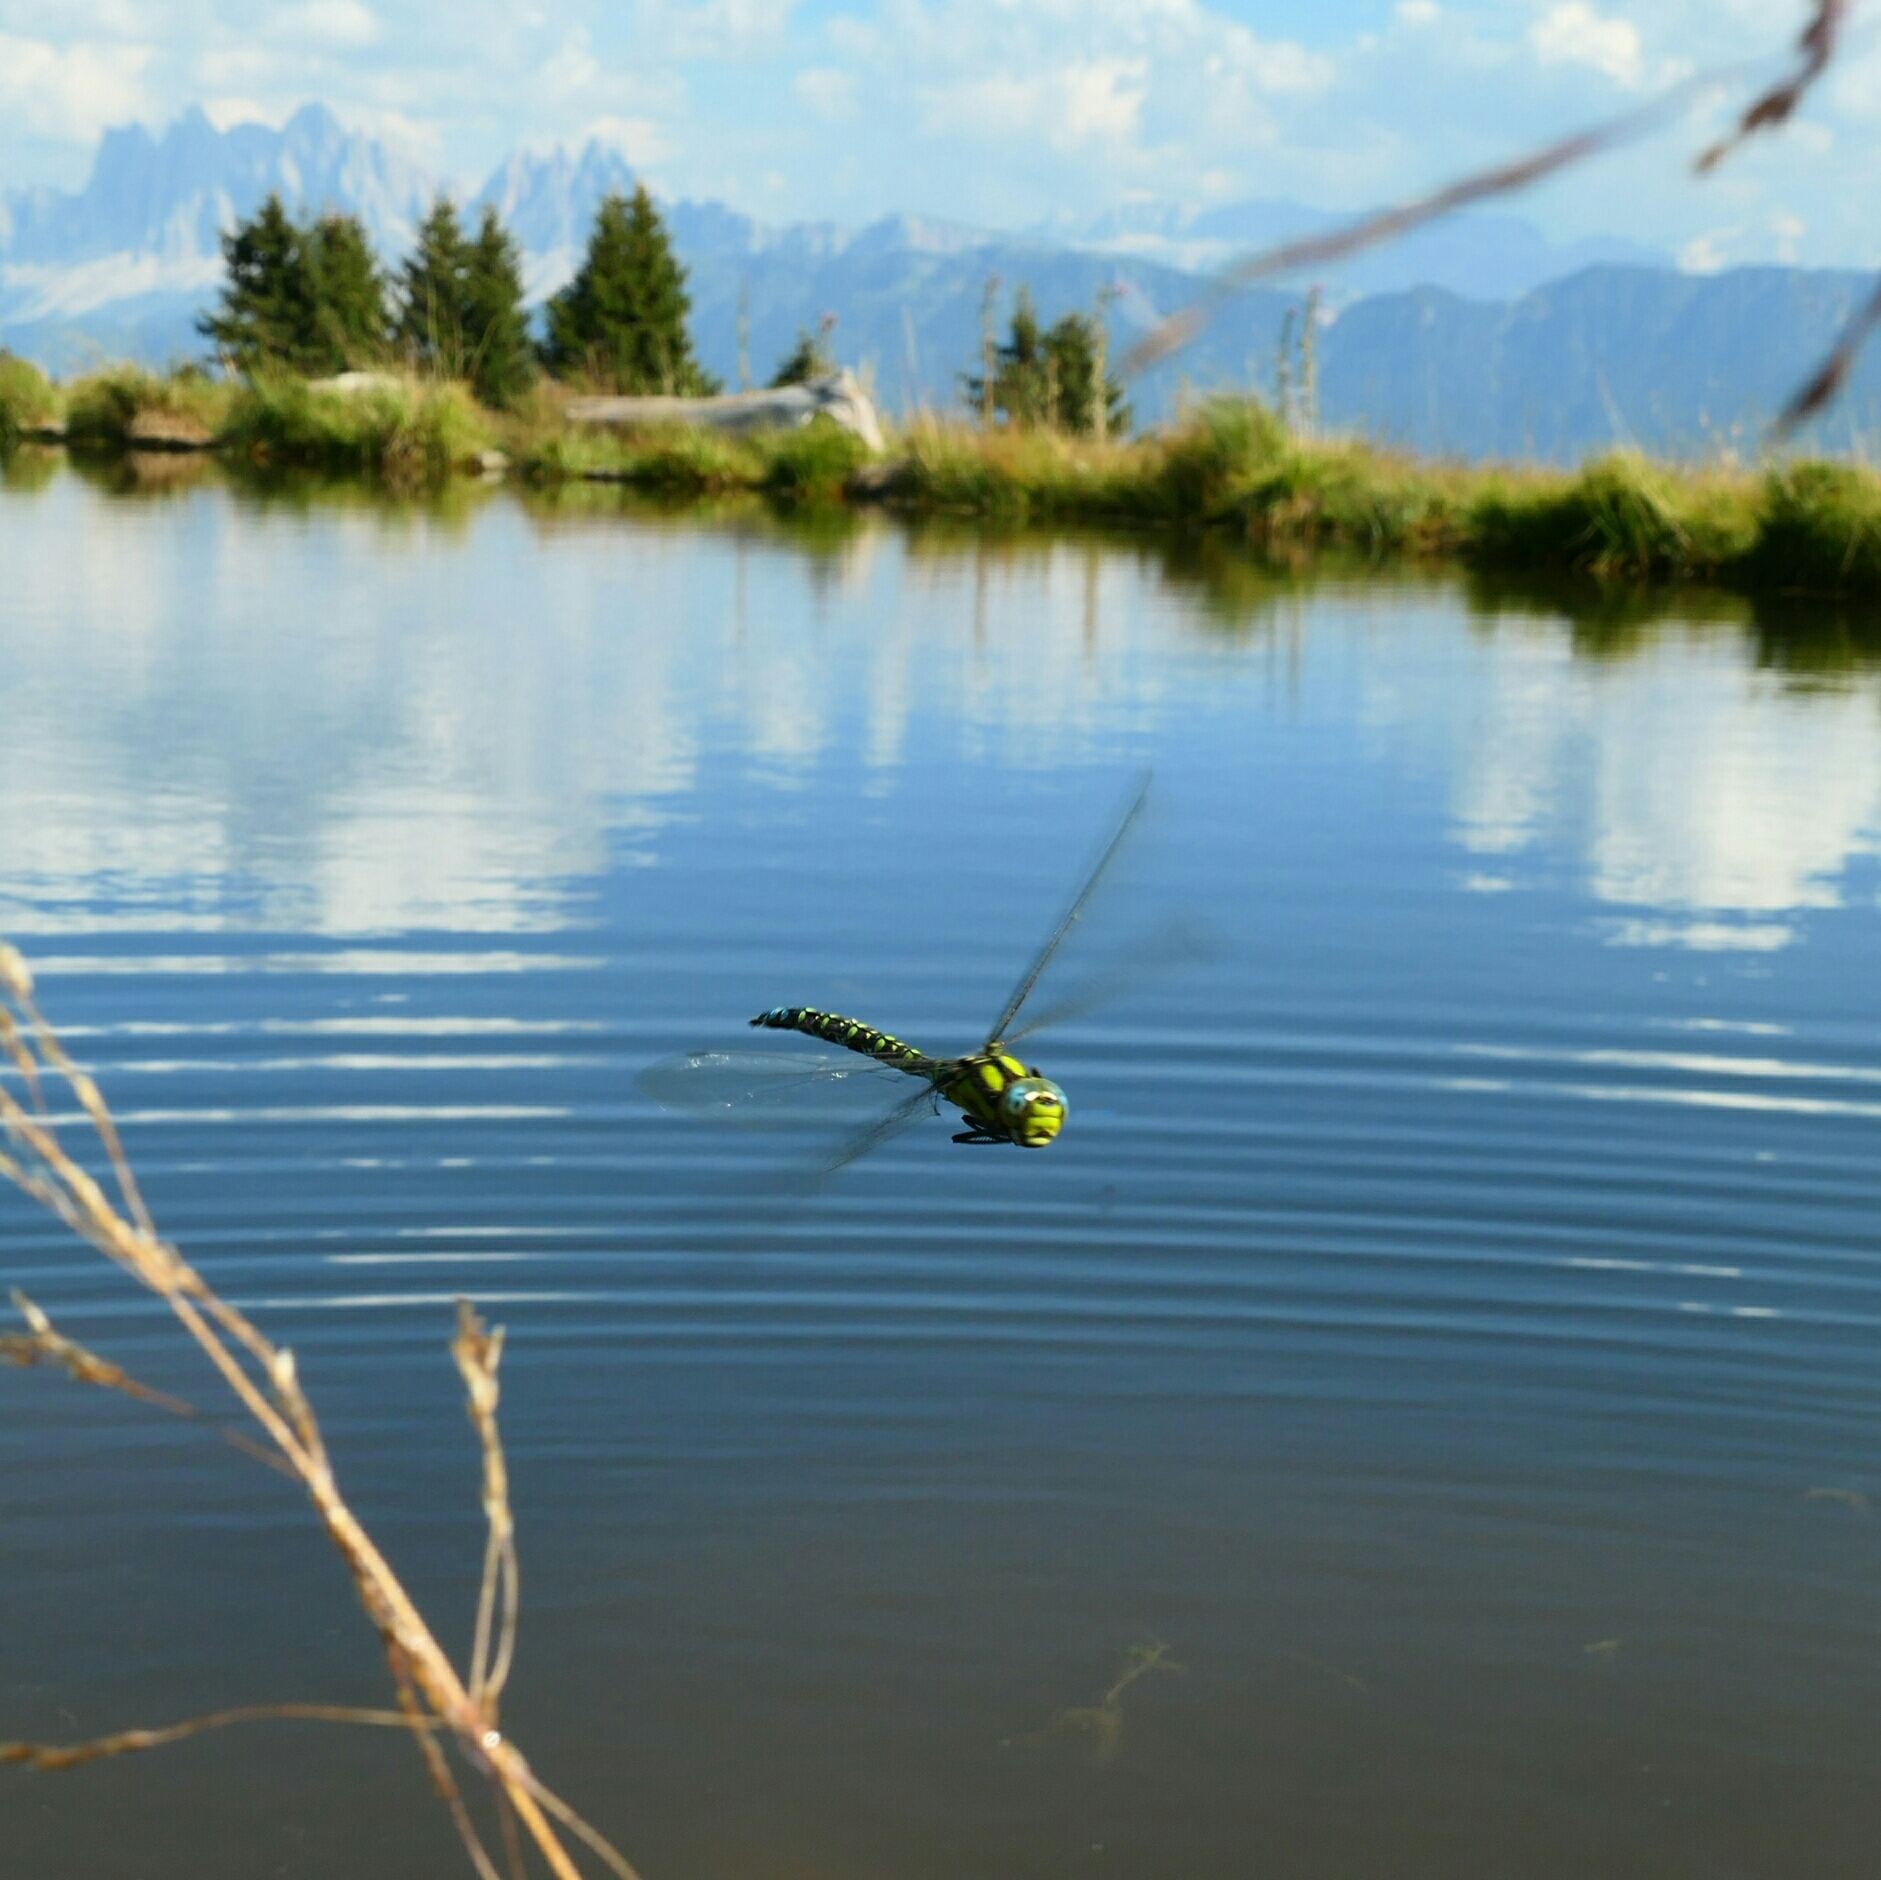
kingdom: Animalia
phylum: Arthropoda
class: Insecta
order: Odonata
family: Aeshnidae
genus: Aeshna
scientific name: Aeshna cyanea
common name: Southern hawker
